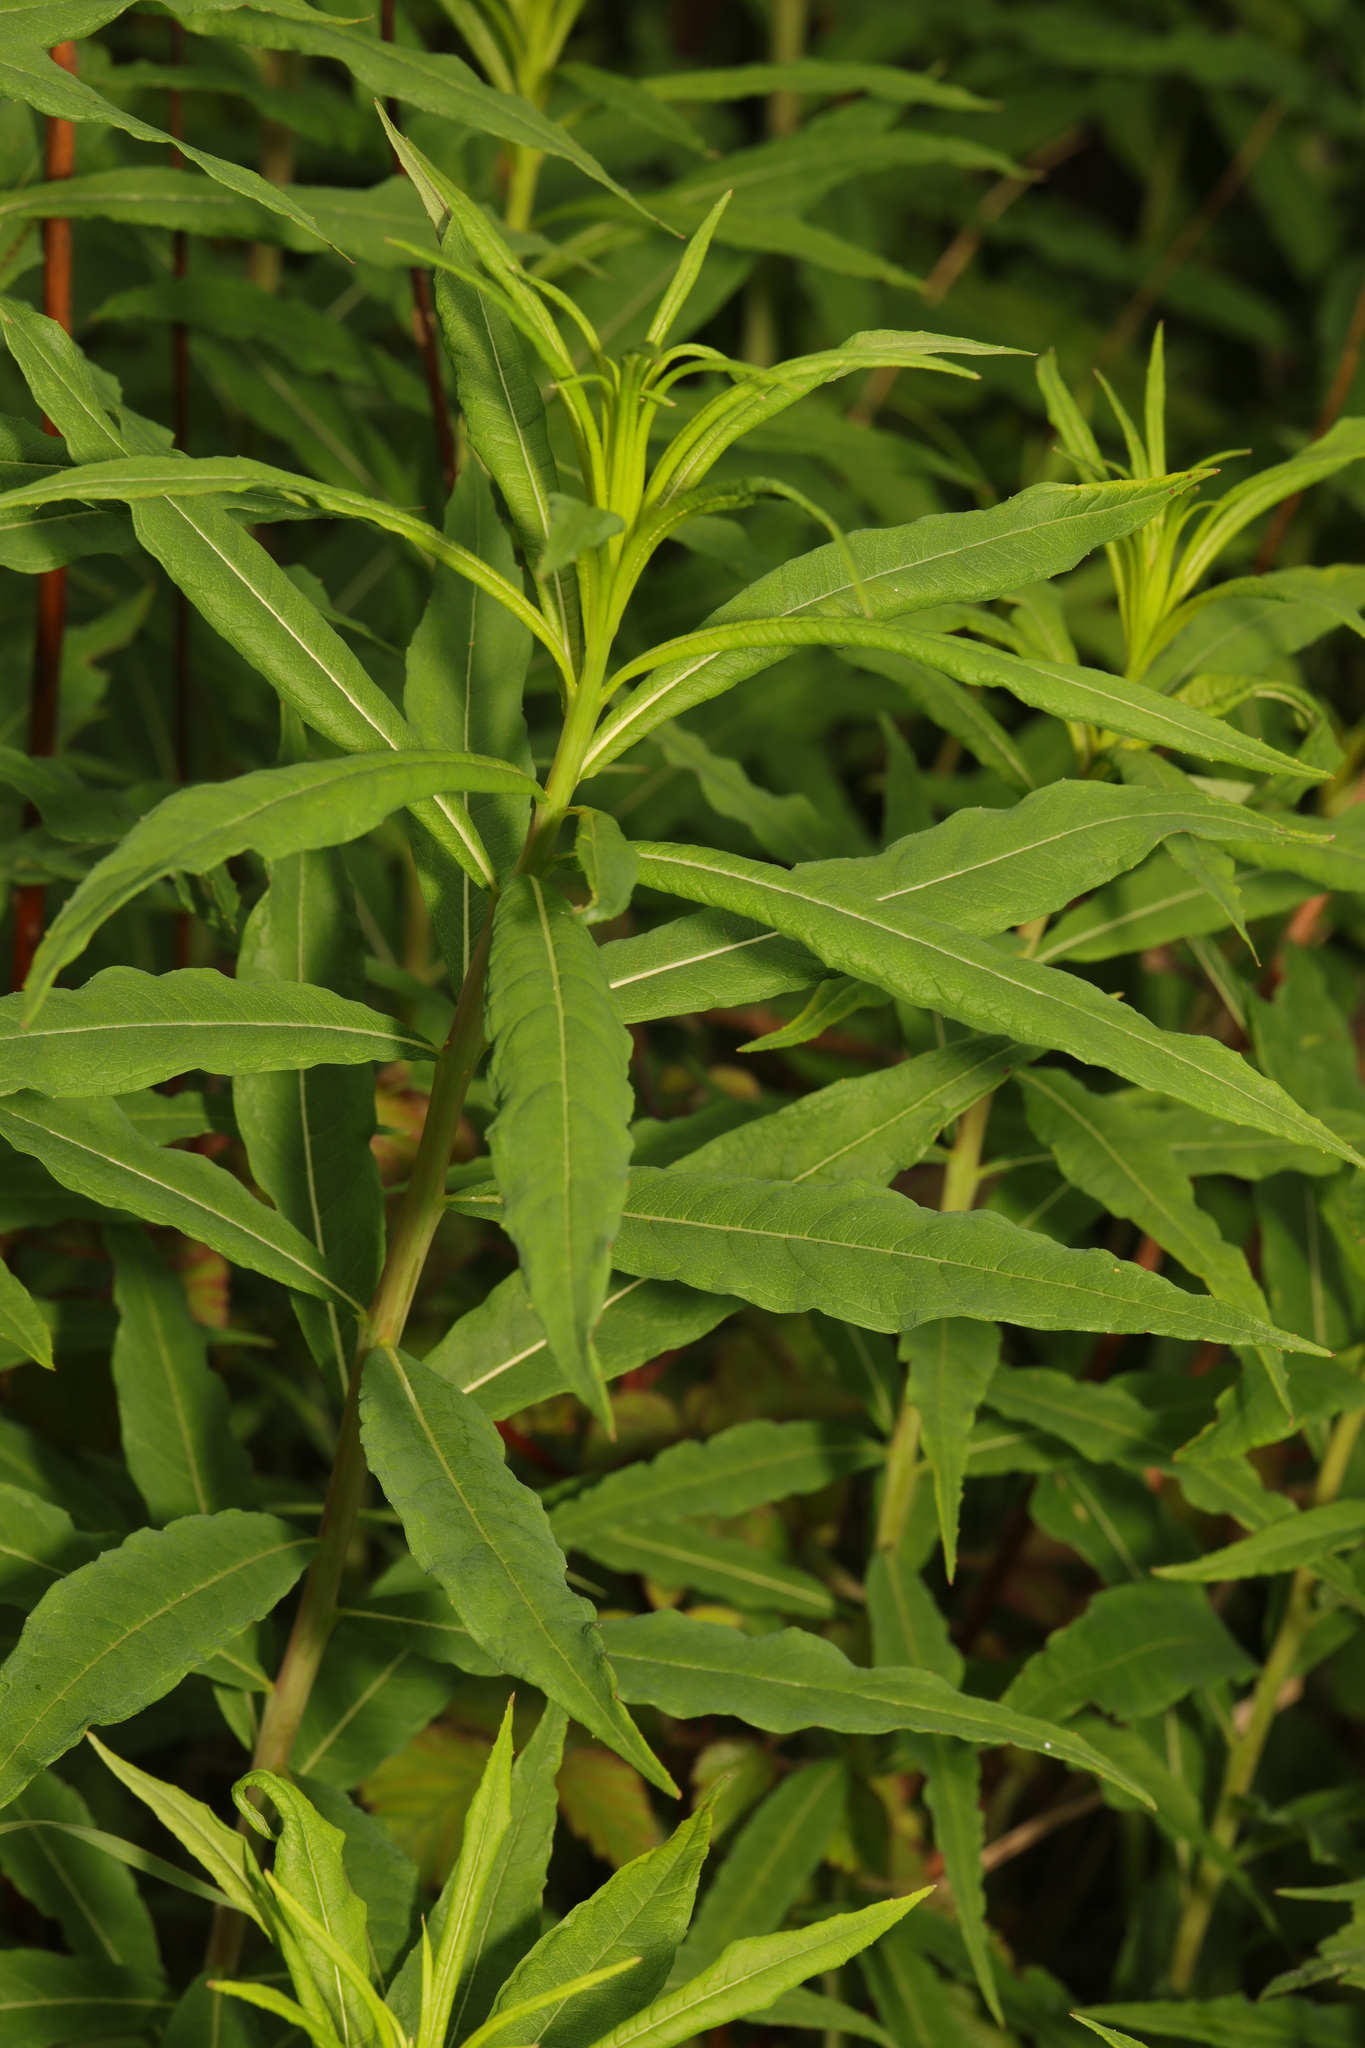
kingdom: Plantae
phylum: Tracheophyta
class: Magnoliopsida
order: Myrtales
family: Onagraceae
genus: Chamaenerion
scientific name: Chamaenerion angustifolium
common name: Fireweed
